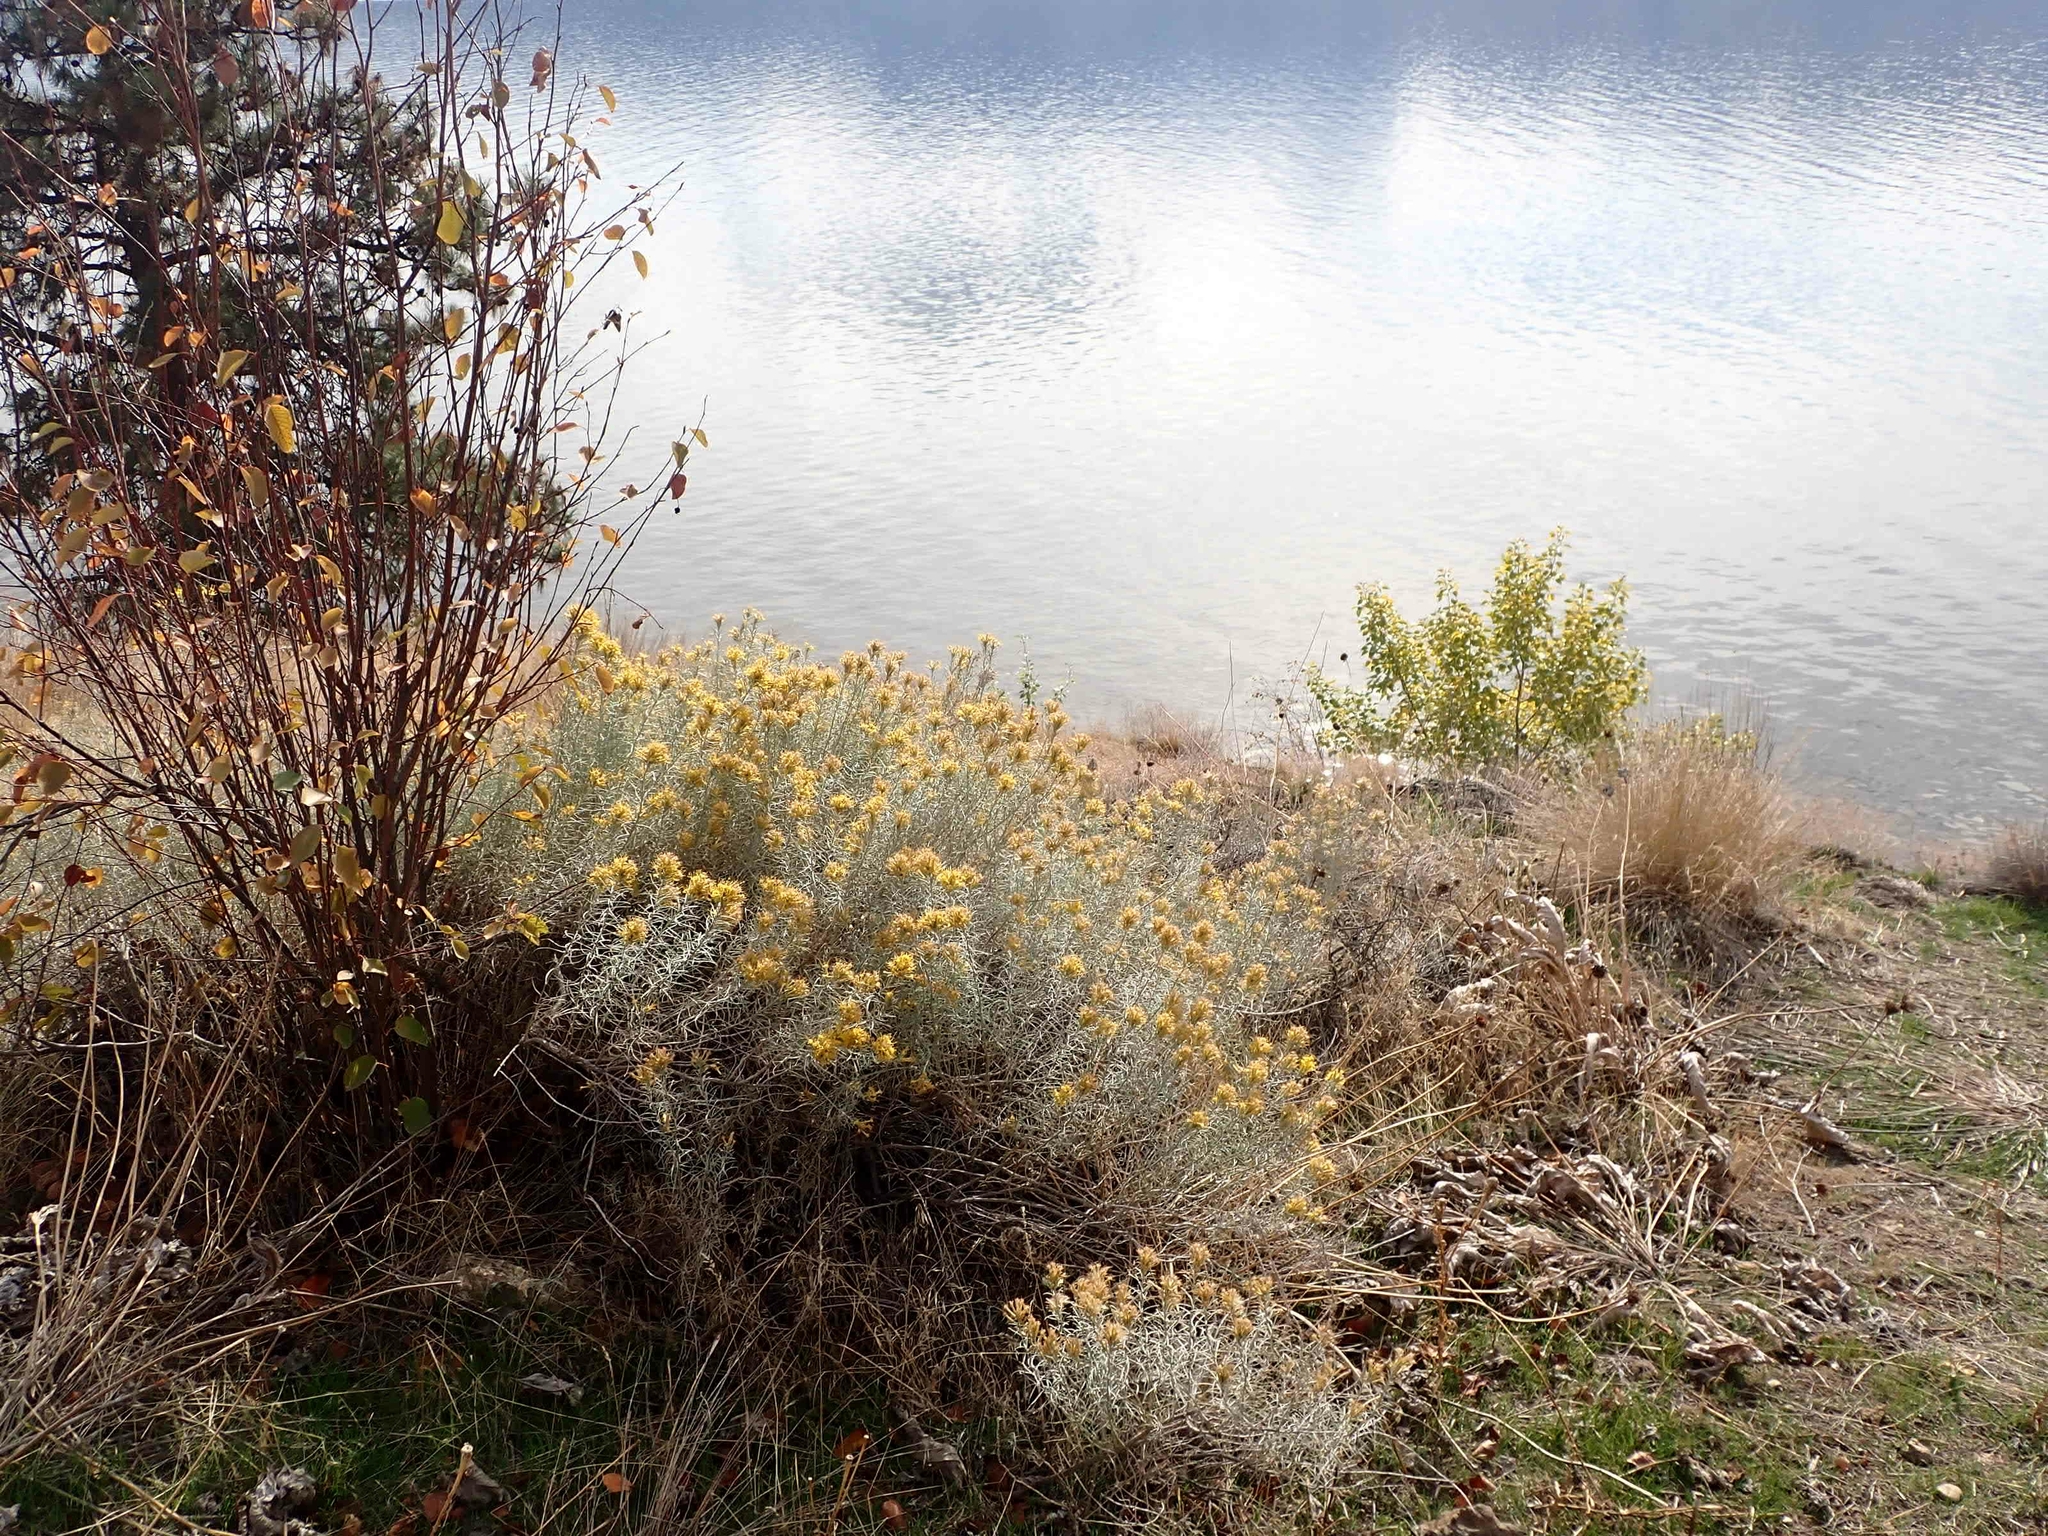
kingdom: Plantae
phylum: Tracheophyta
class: Magnoliopsida
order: Asterales
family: Asteraceae
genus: Ericameria
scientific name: Ericameria nauseosa
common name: Rubber rabbitbrush
